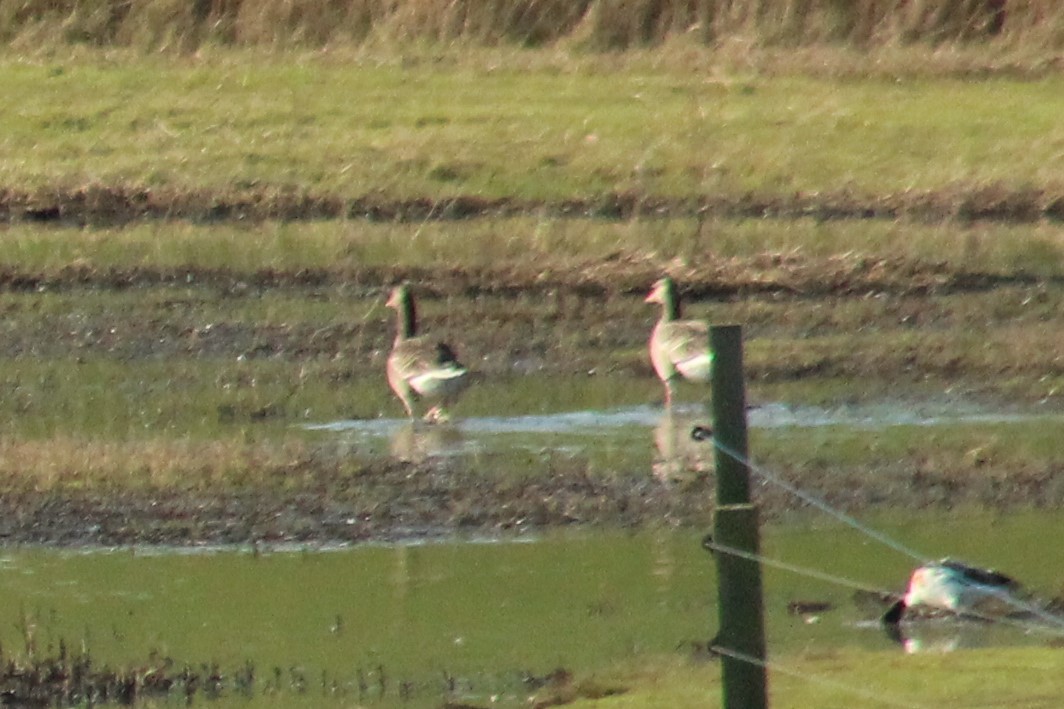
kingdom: Animalia
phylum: Chordata
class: Aves
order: Anseriformes
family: Anatidae
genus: Anser
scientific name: Anser anser
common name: Greylag goose
